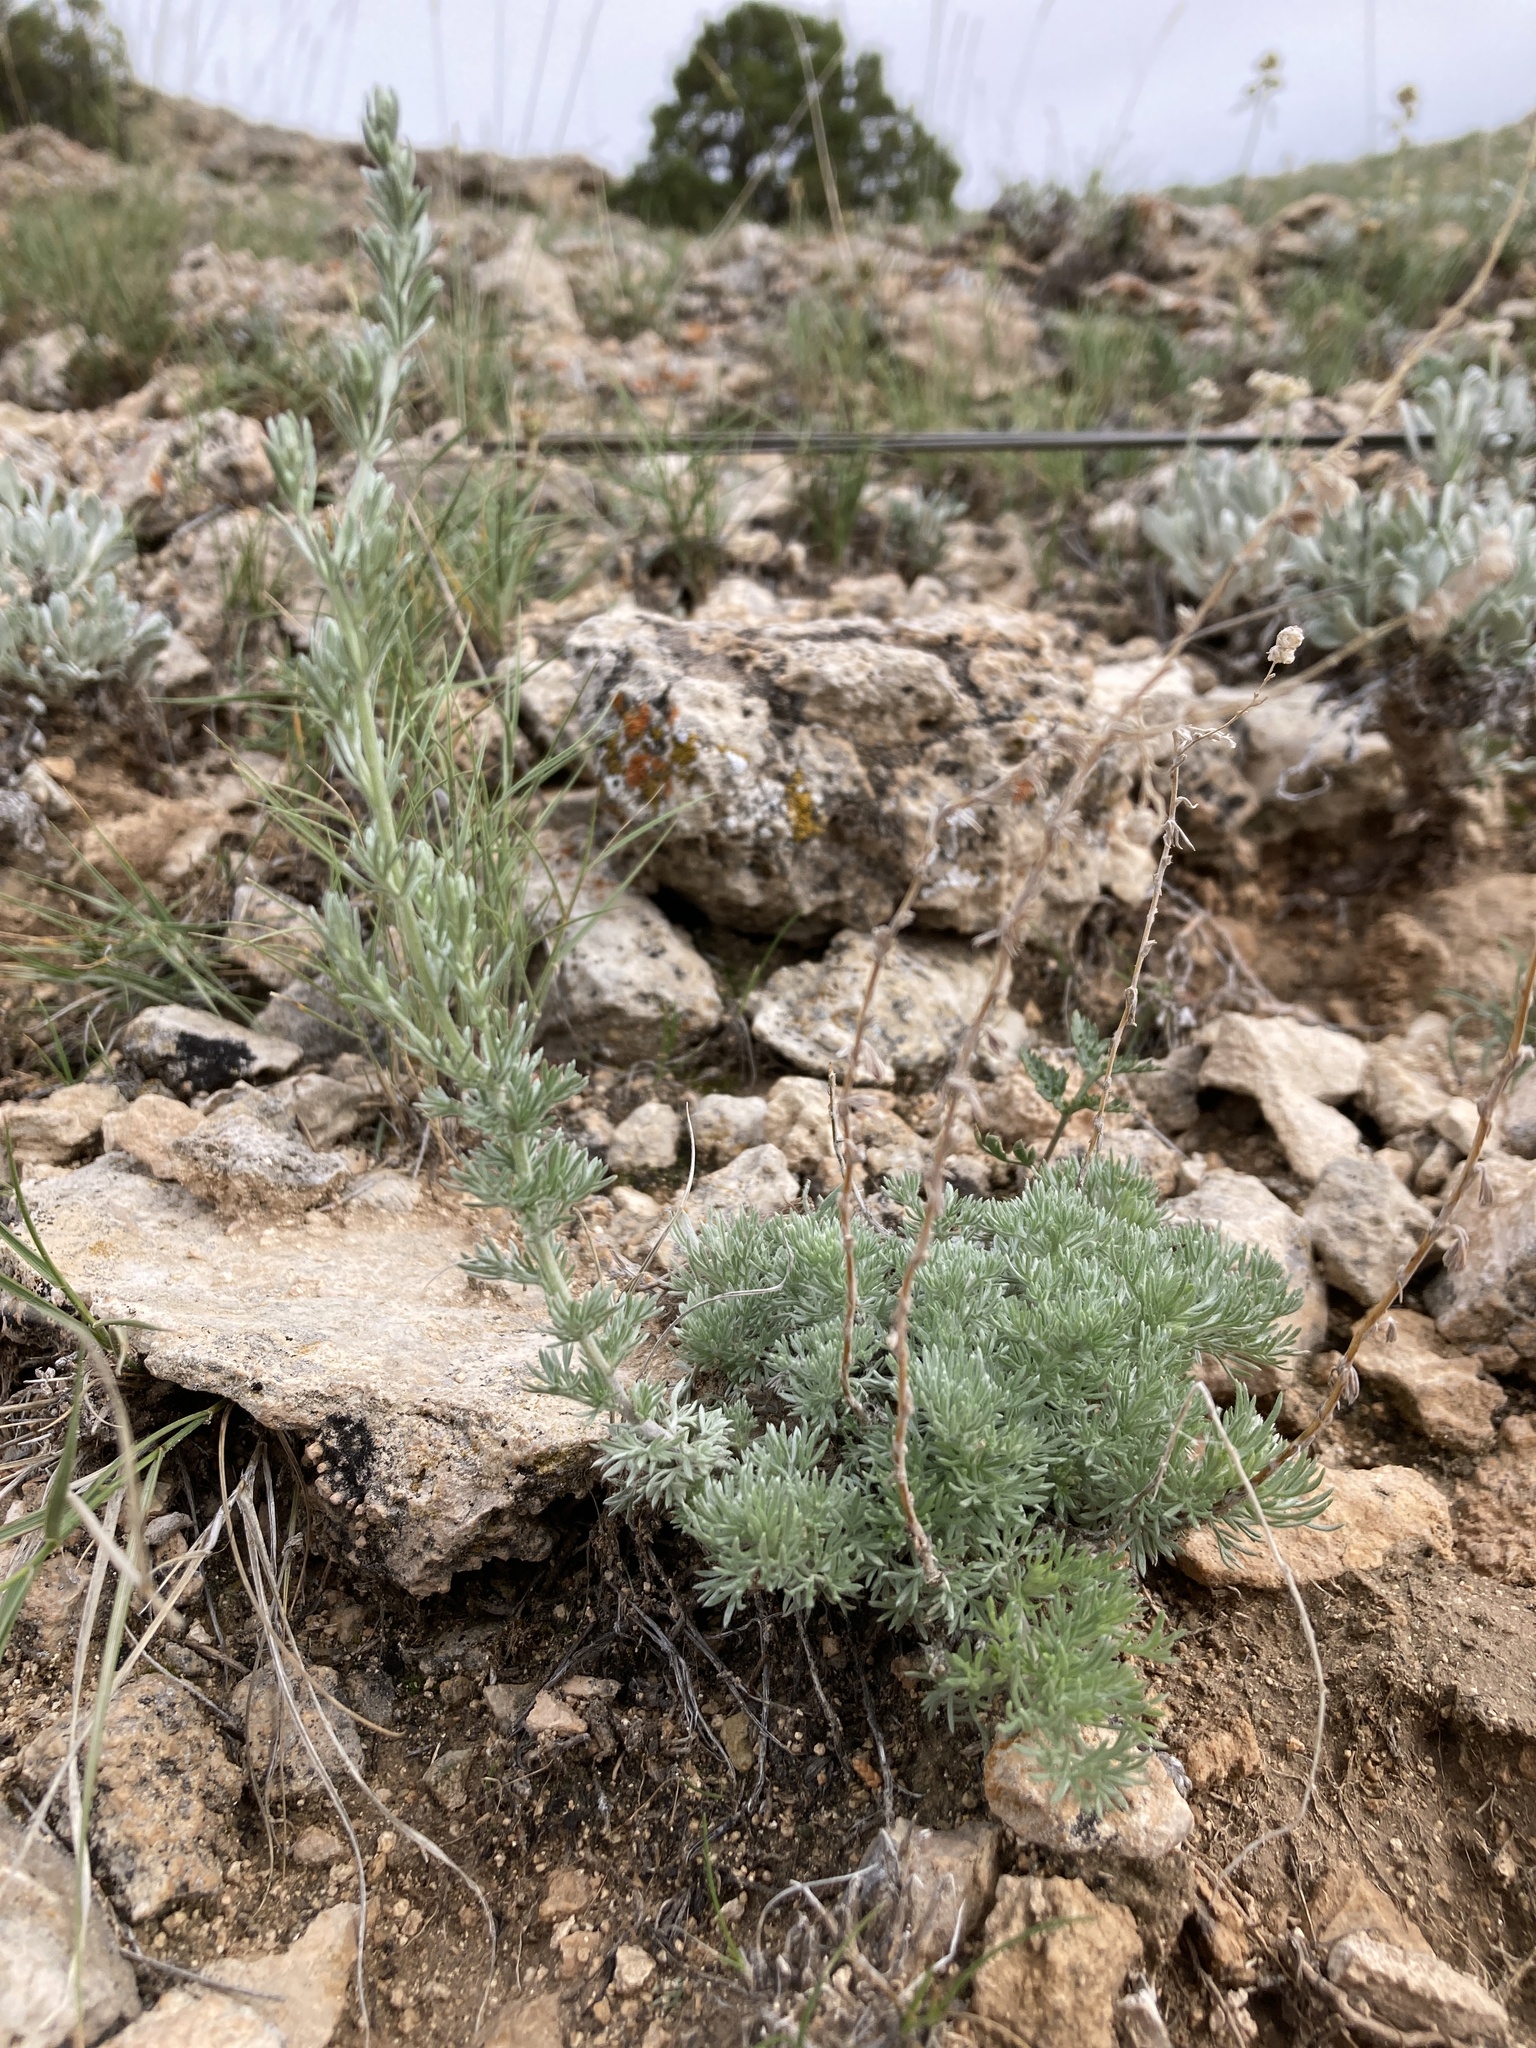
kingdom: Plantae
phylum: Tracheophyta
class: Magnoliopsida
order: Asterales
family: Asteraceae
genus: Artemisia
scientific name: Artemisia frigida
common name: Prairie sagewort
